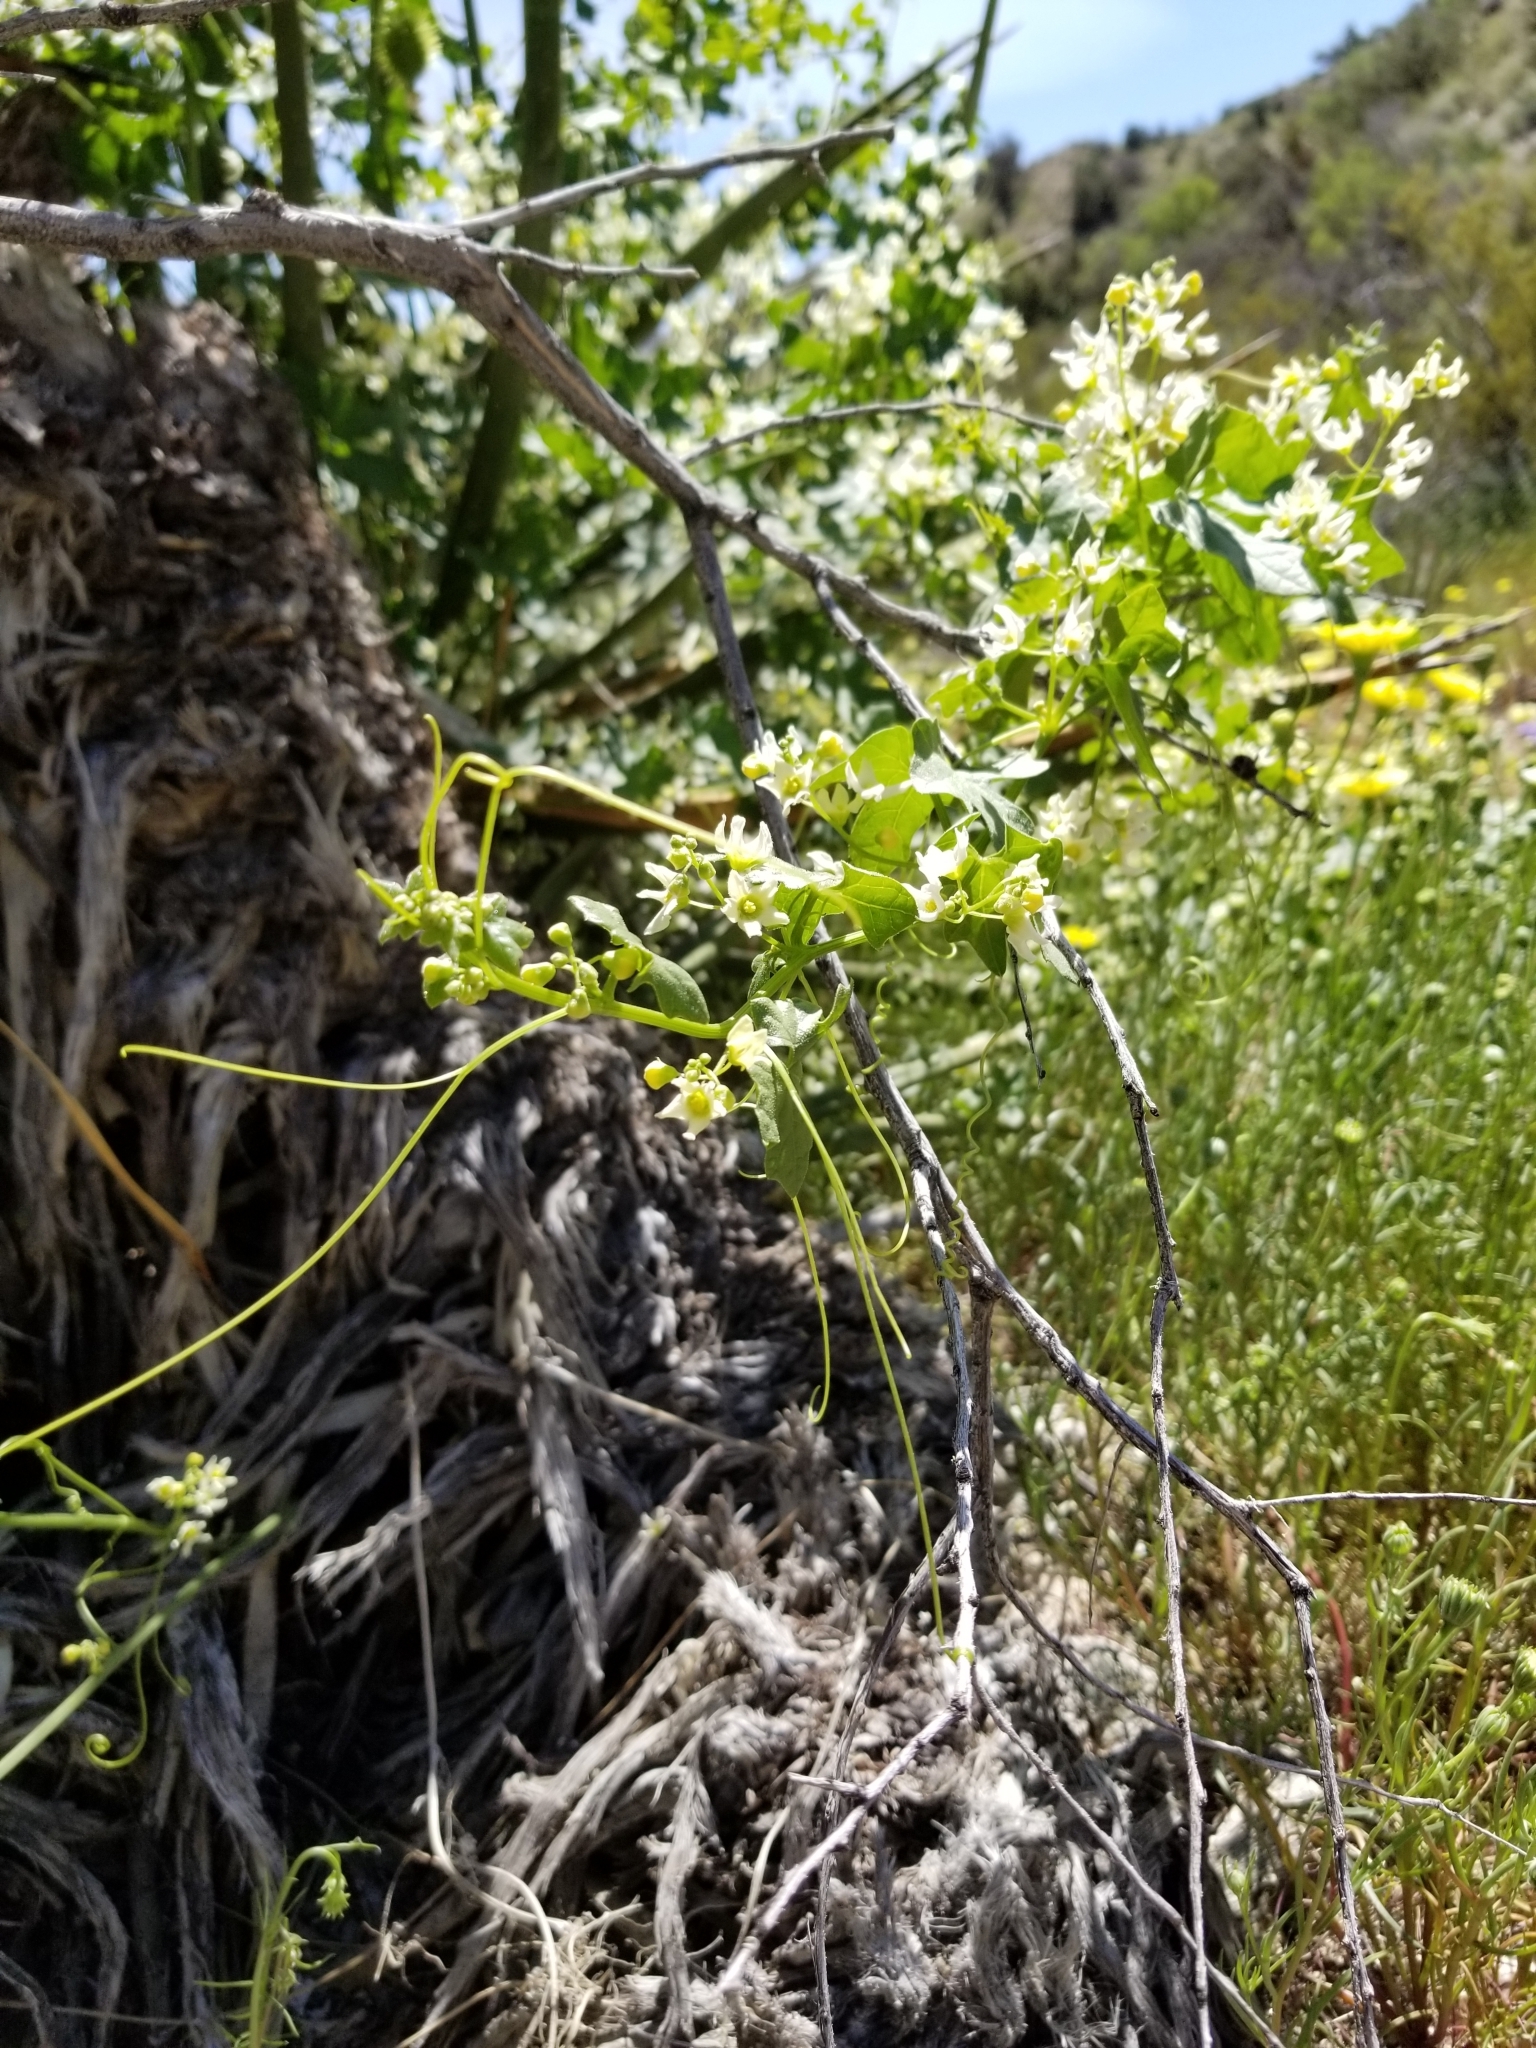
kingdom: Plantae
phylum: Tracheophyta
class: Magnoliopsida
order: Cucurbitales
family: Cucurbitaceae
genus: Marah
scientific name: Marah macrocarpa
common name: Cucamonga manroot
